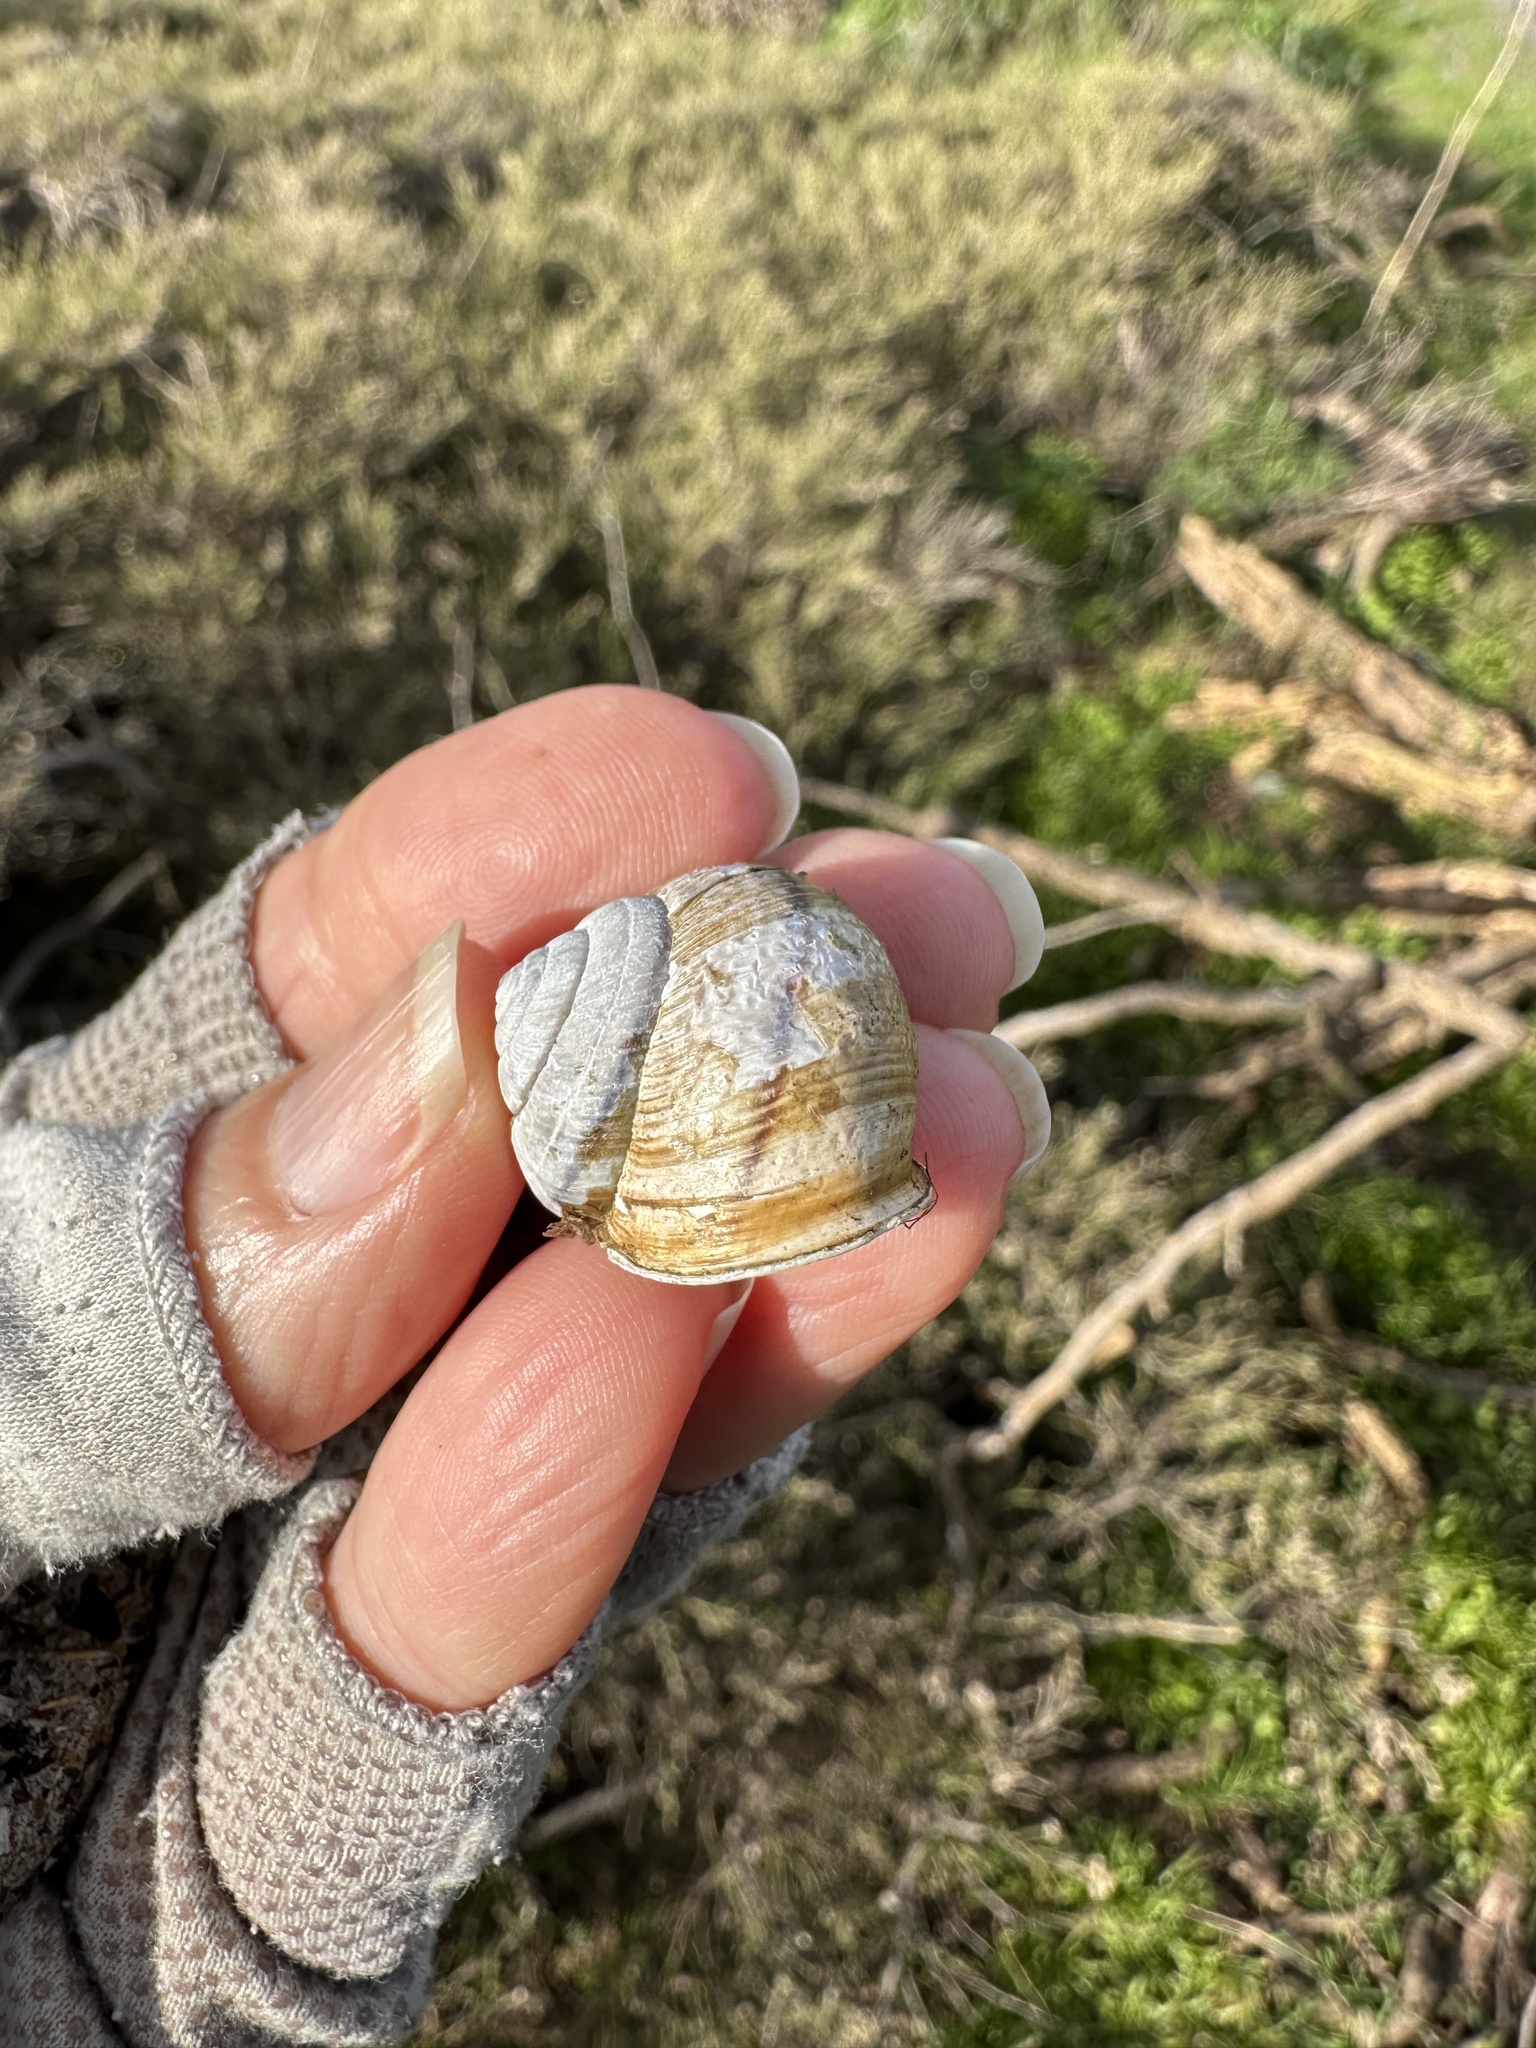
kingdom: Animalia
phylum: Mollusca
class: Gastropoda
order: Stylommatophora
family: Xanthonychidae
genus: Helminthoglypta
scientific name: Helminthoglypta stiversiana
